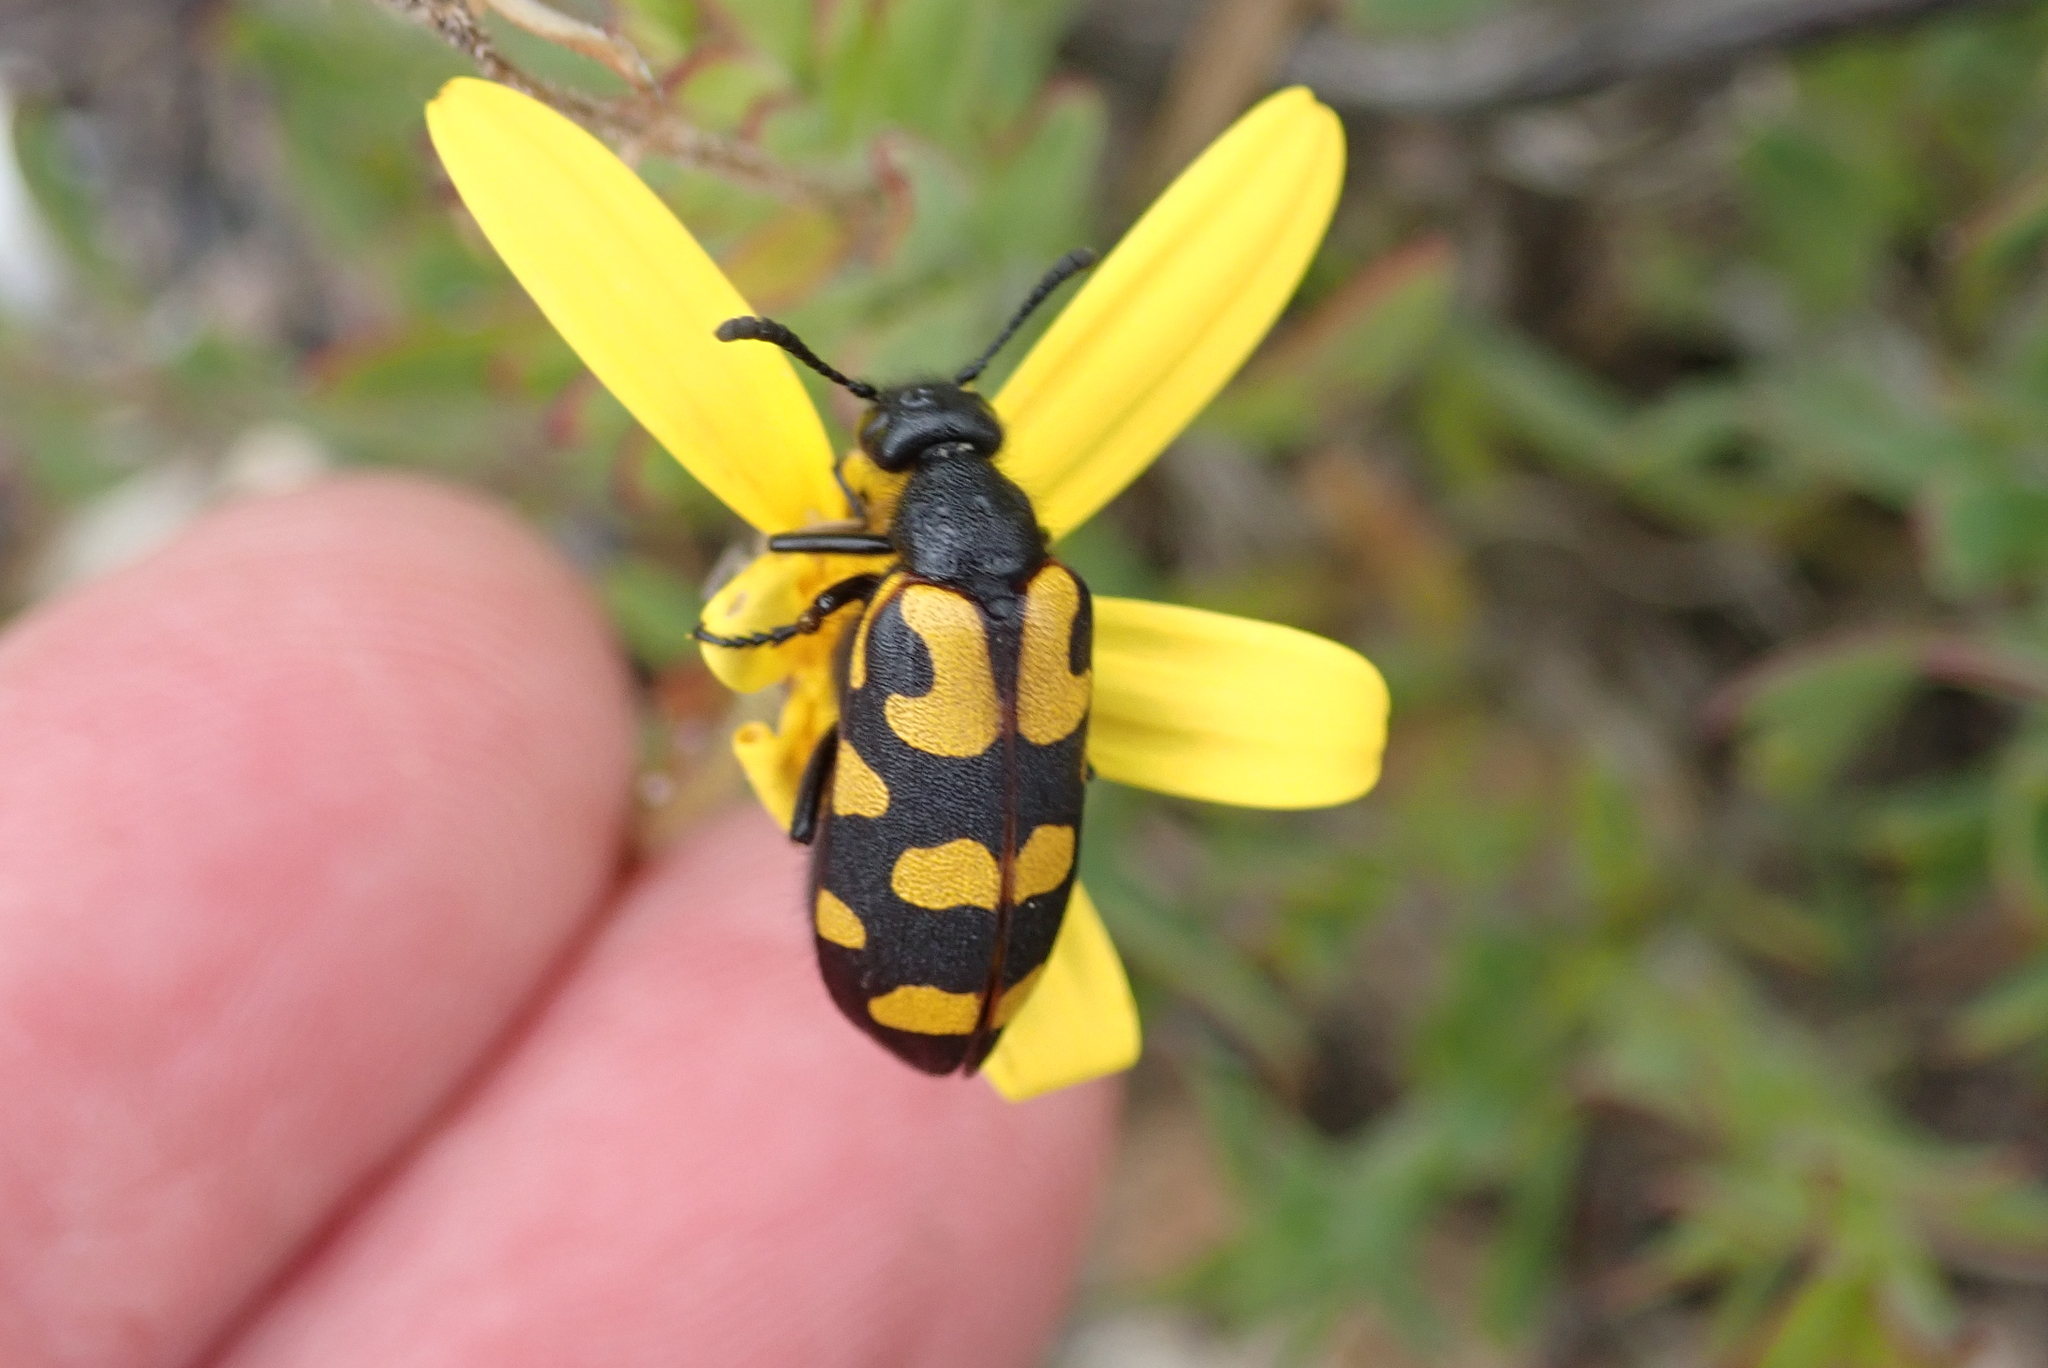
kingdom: Animalia
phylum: Arthropoda
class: Insecta
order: Coleoptera
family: Meloidae
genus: Ceroctis
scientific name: Ceroctis capensis
